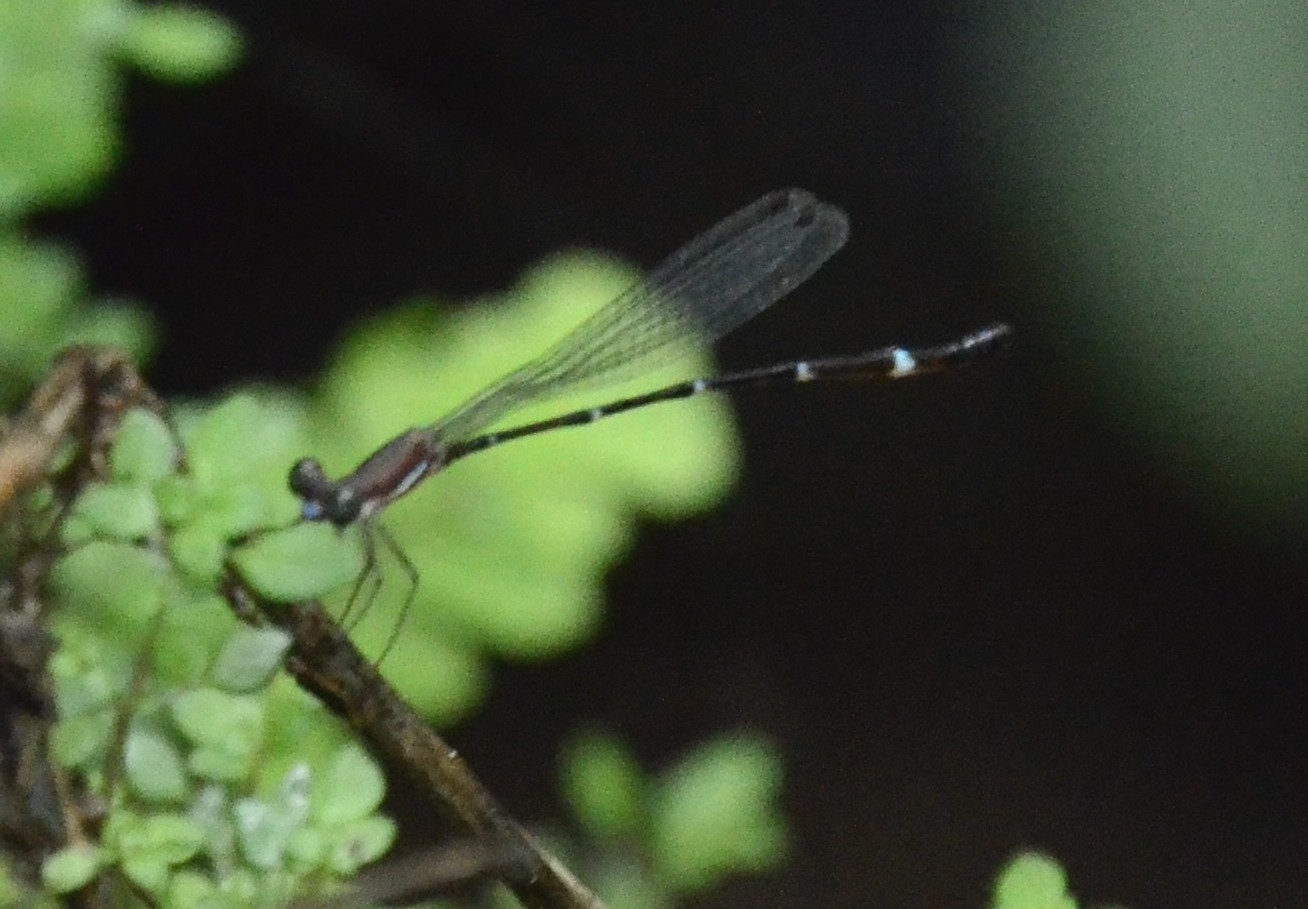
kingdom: Animalia
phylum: Arthropoda
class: Insecta
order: Odonata
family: Platystictidae
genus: Protosticta
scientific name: Protosticta sanguinostigma
